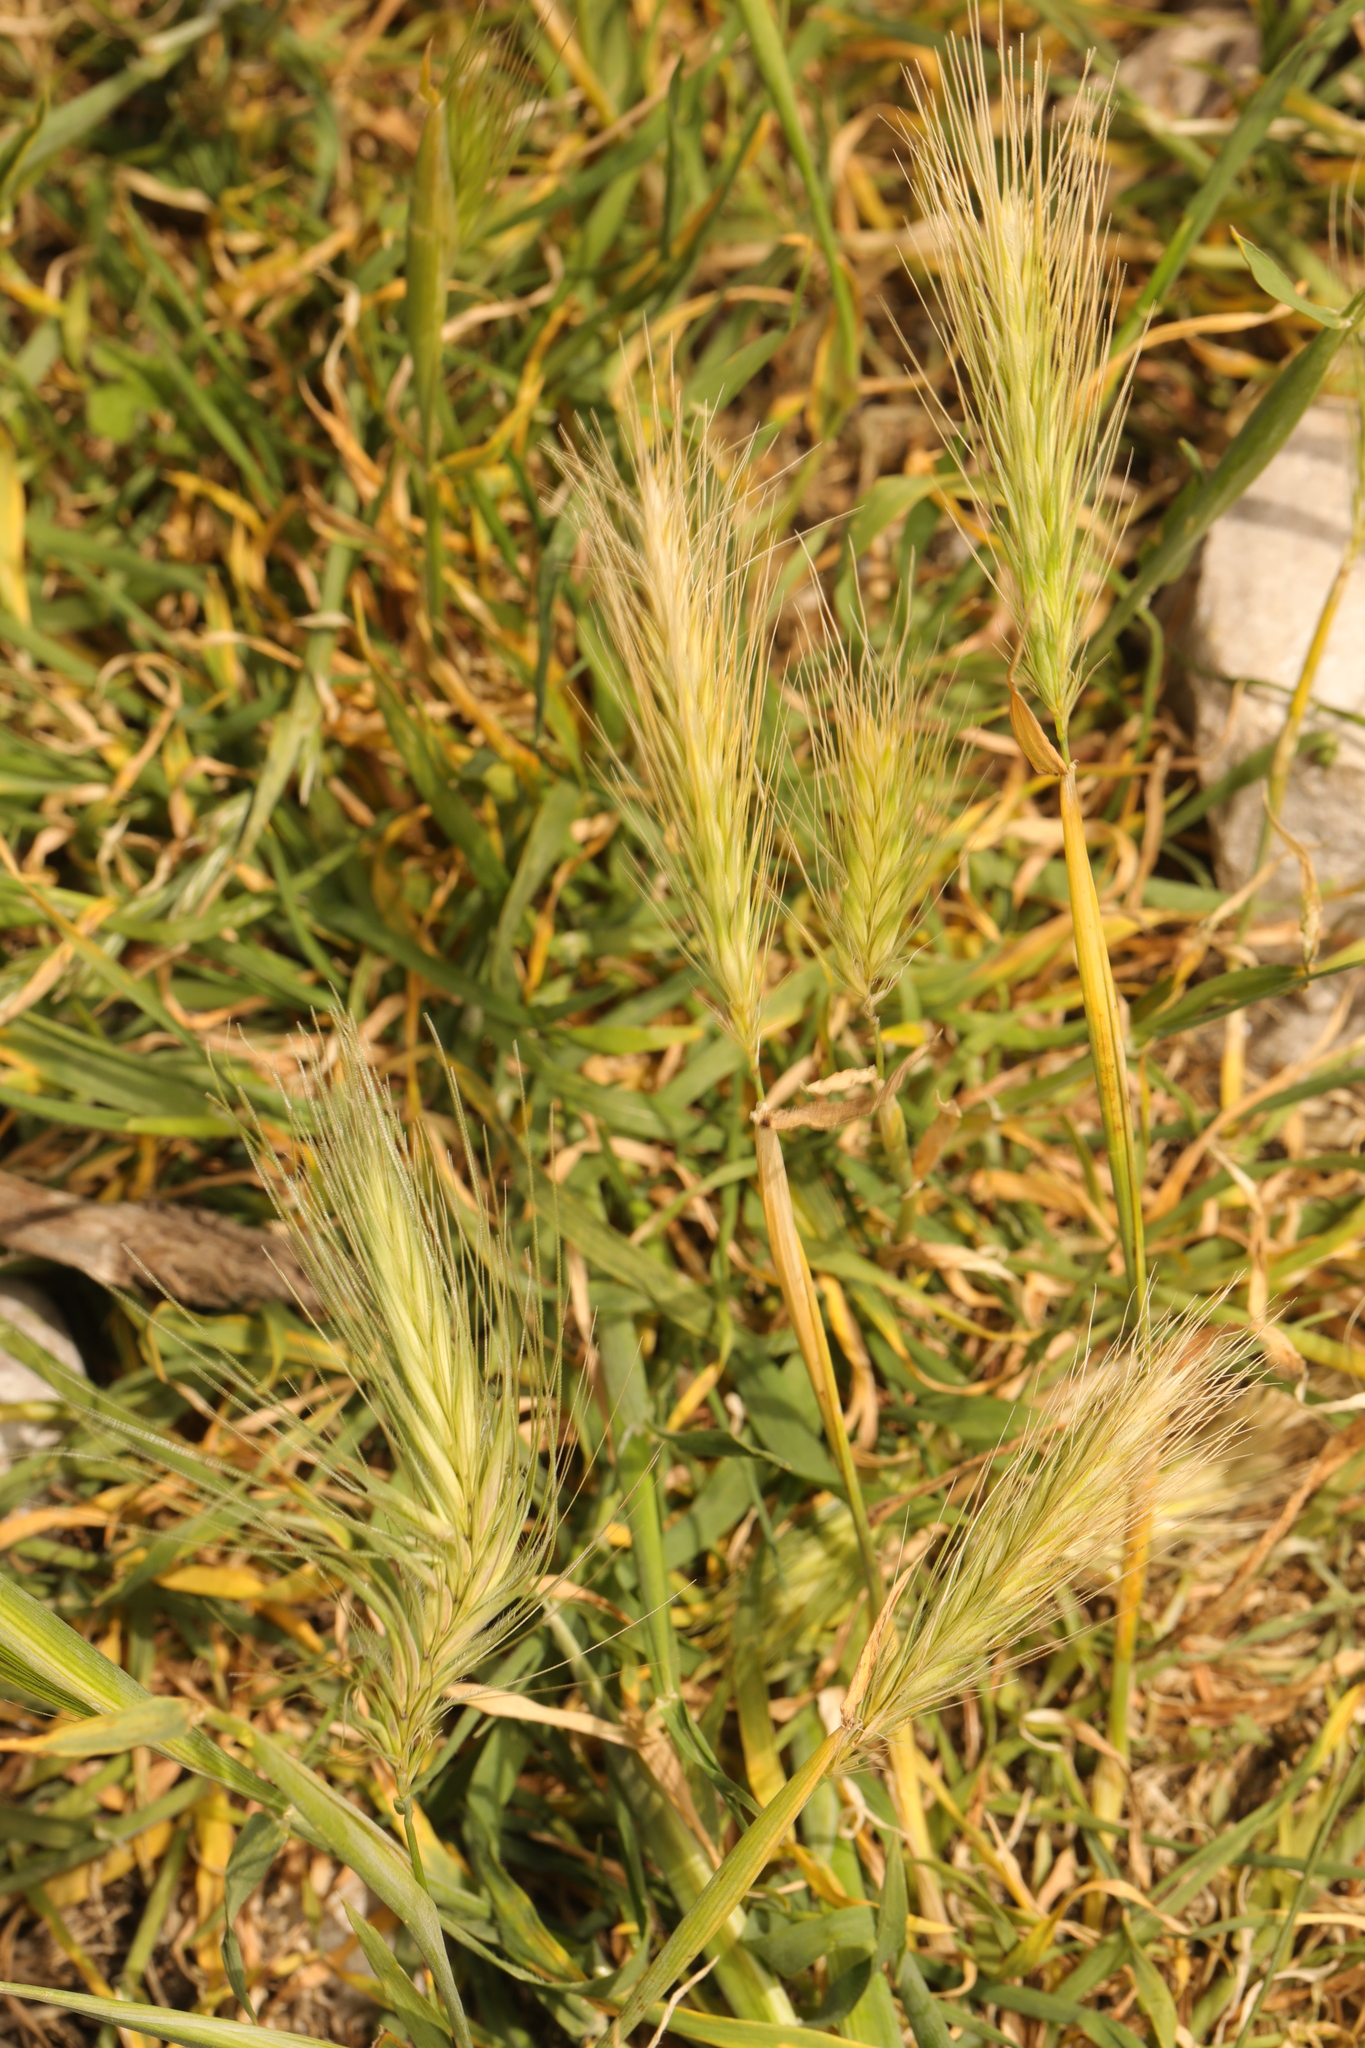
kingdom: Plantae
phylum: Tracheophyta
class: Liliopsida
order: Poales
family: Poaceae
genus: Hordeum
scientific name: Hordeum murinum
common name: Wall barley
